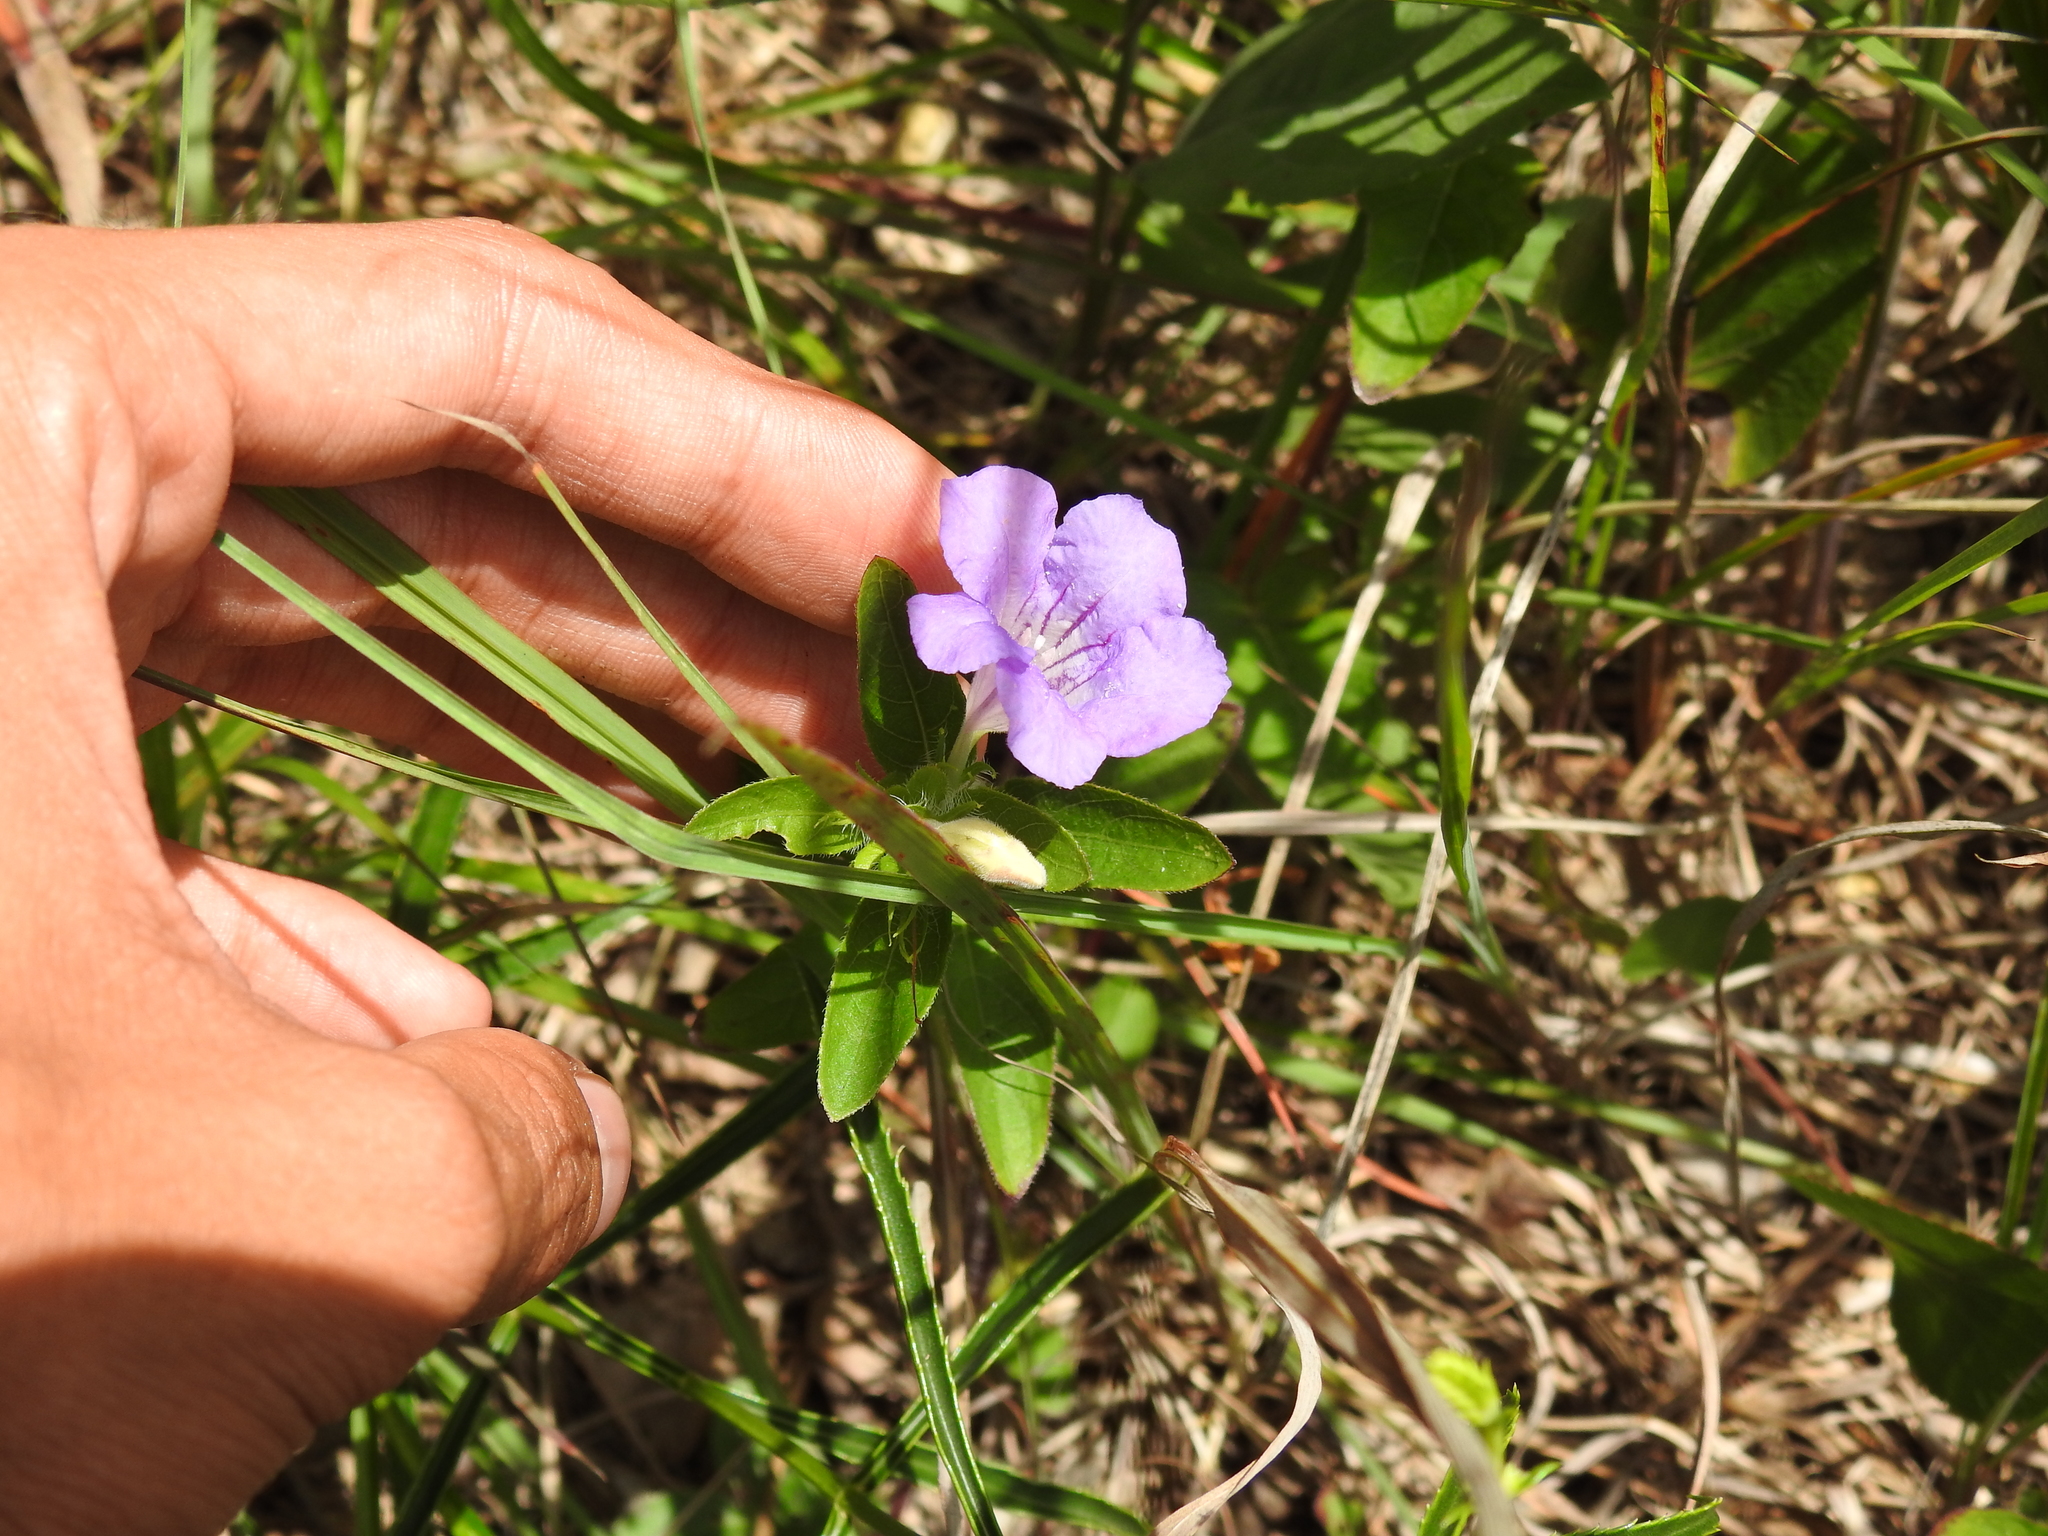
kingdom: Plantae
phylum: Tracheophyta
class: Magnoliopsida
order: Lamiales
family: Acanthaceae
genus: Ruellia
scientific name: Ruellia humilis
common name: Fringe-leaf ruellia
